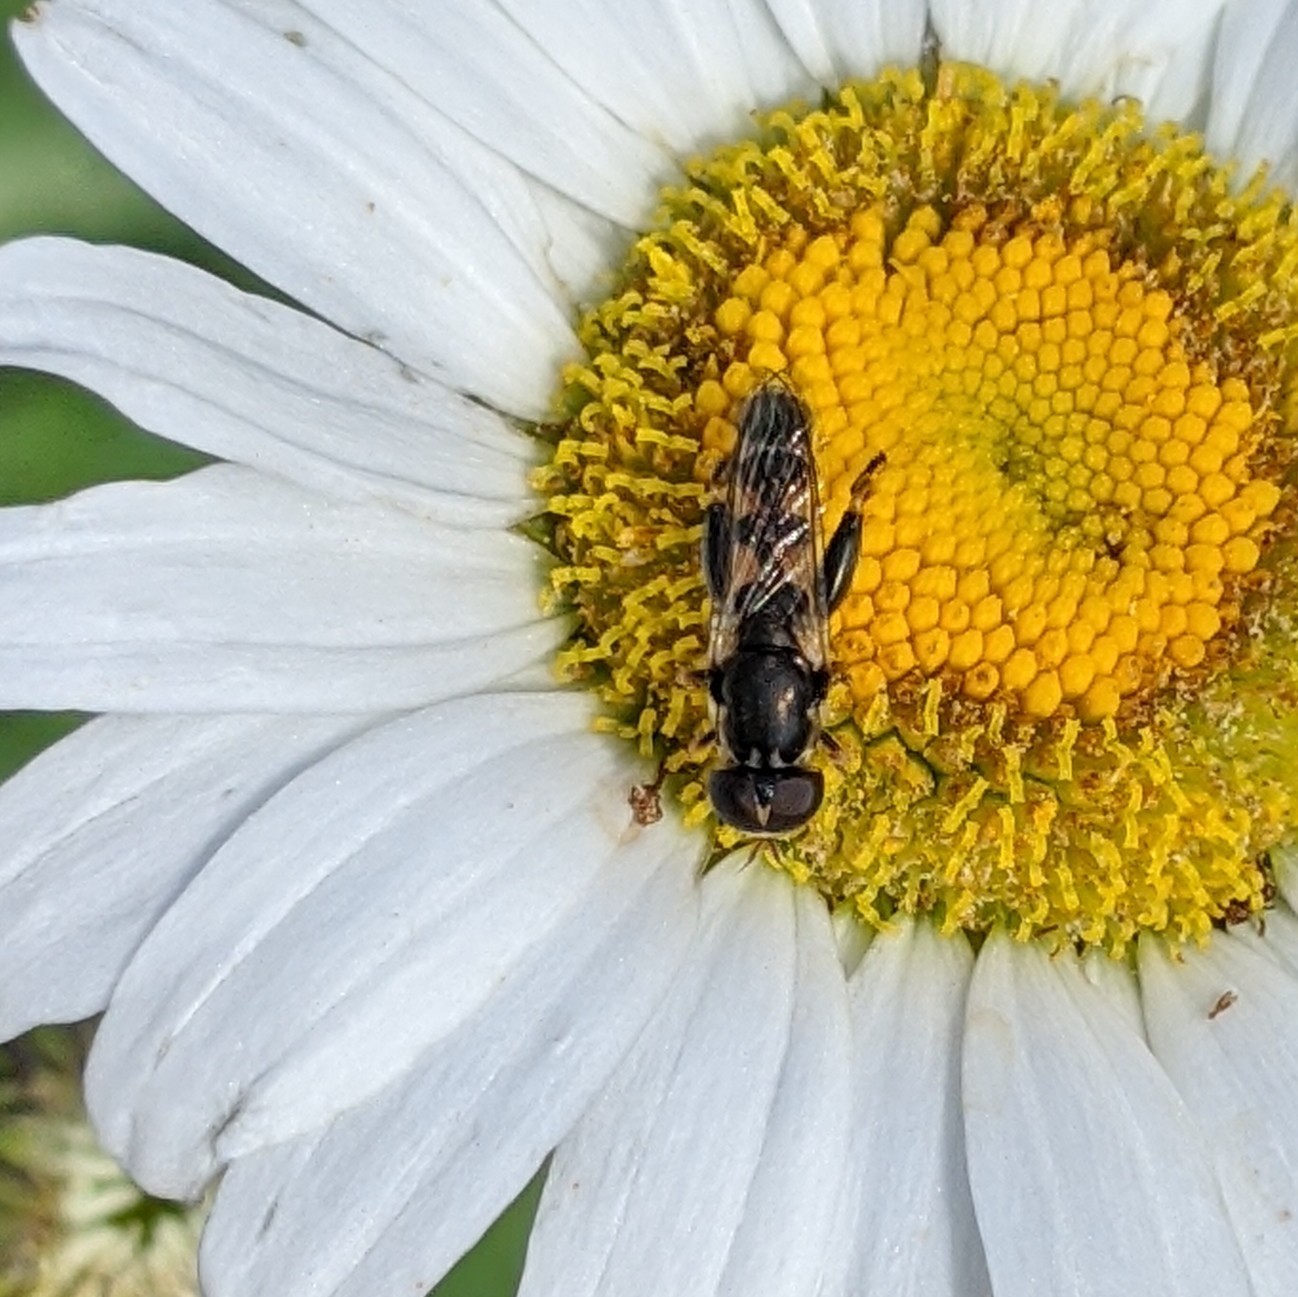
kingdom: Animalia
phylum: Arthropoda
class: Insecta
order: Diptera
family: Syrphidae
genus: Syritta
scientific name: Syritta pipiens
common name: Hover fly
